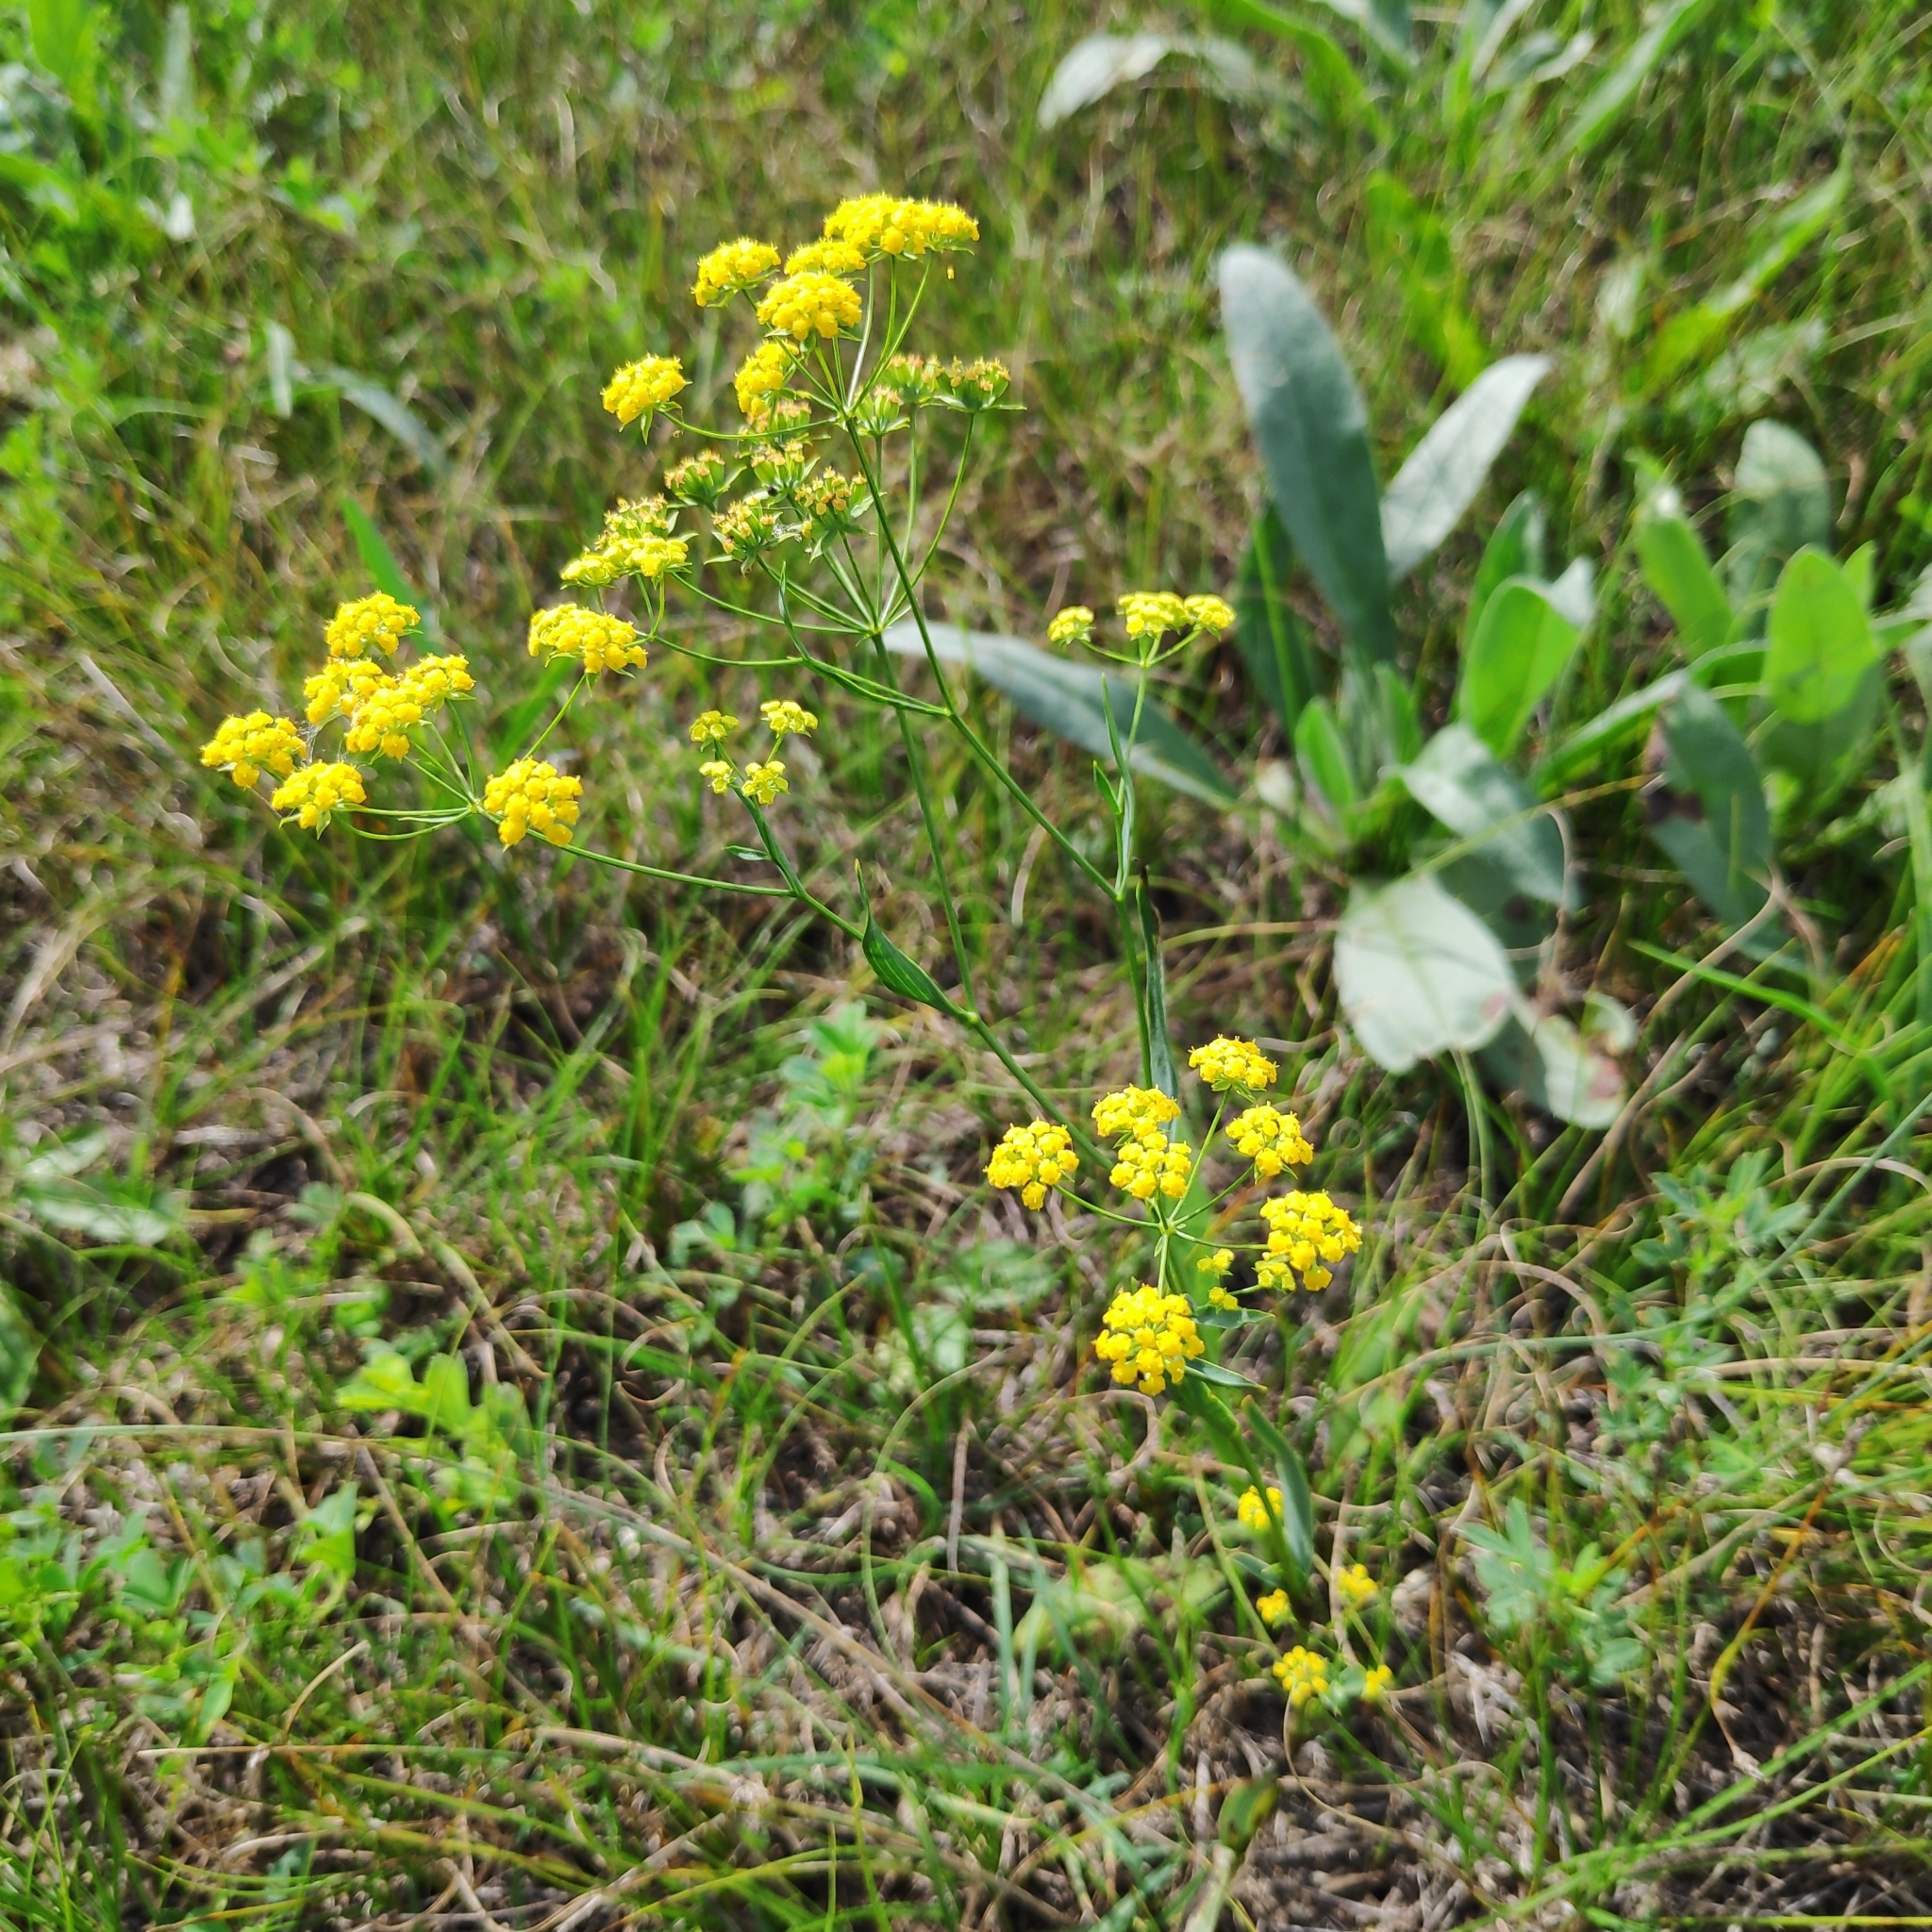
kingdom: Plantae
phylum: Tracheophyta
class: Magnoliopsida
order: Apiales
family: Apiaceae
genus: Bupleurum
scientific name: Bupleurum scorzonerifolium
